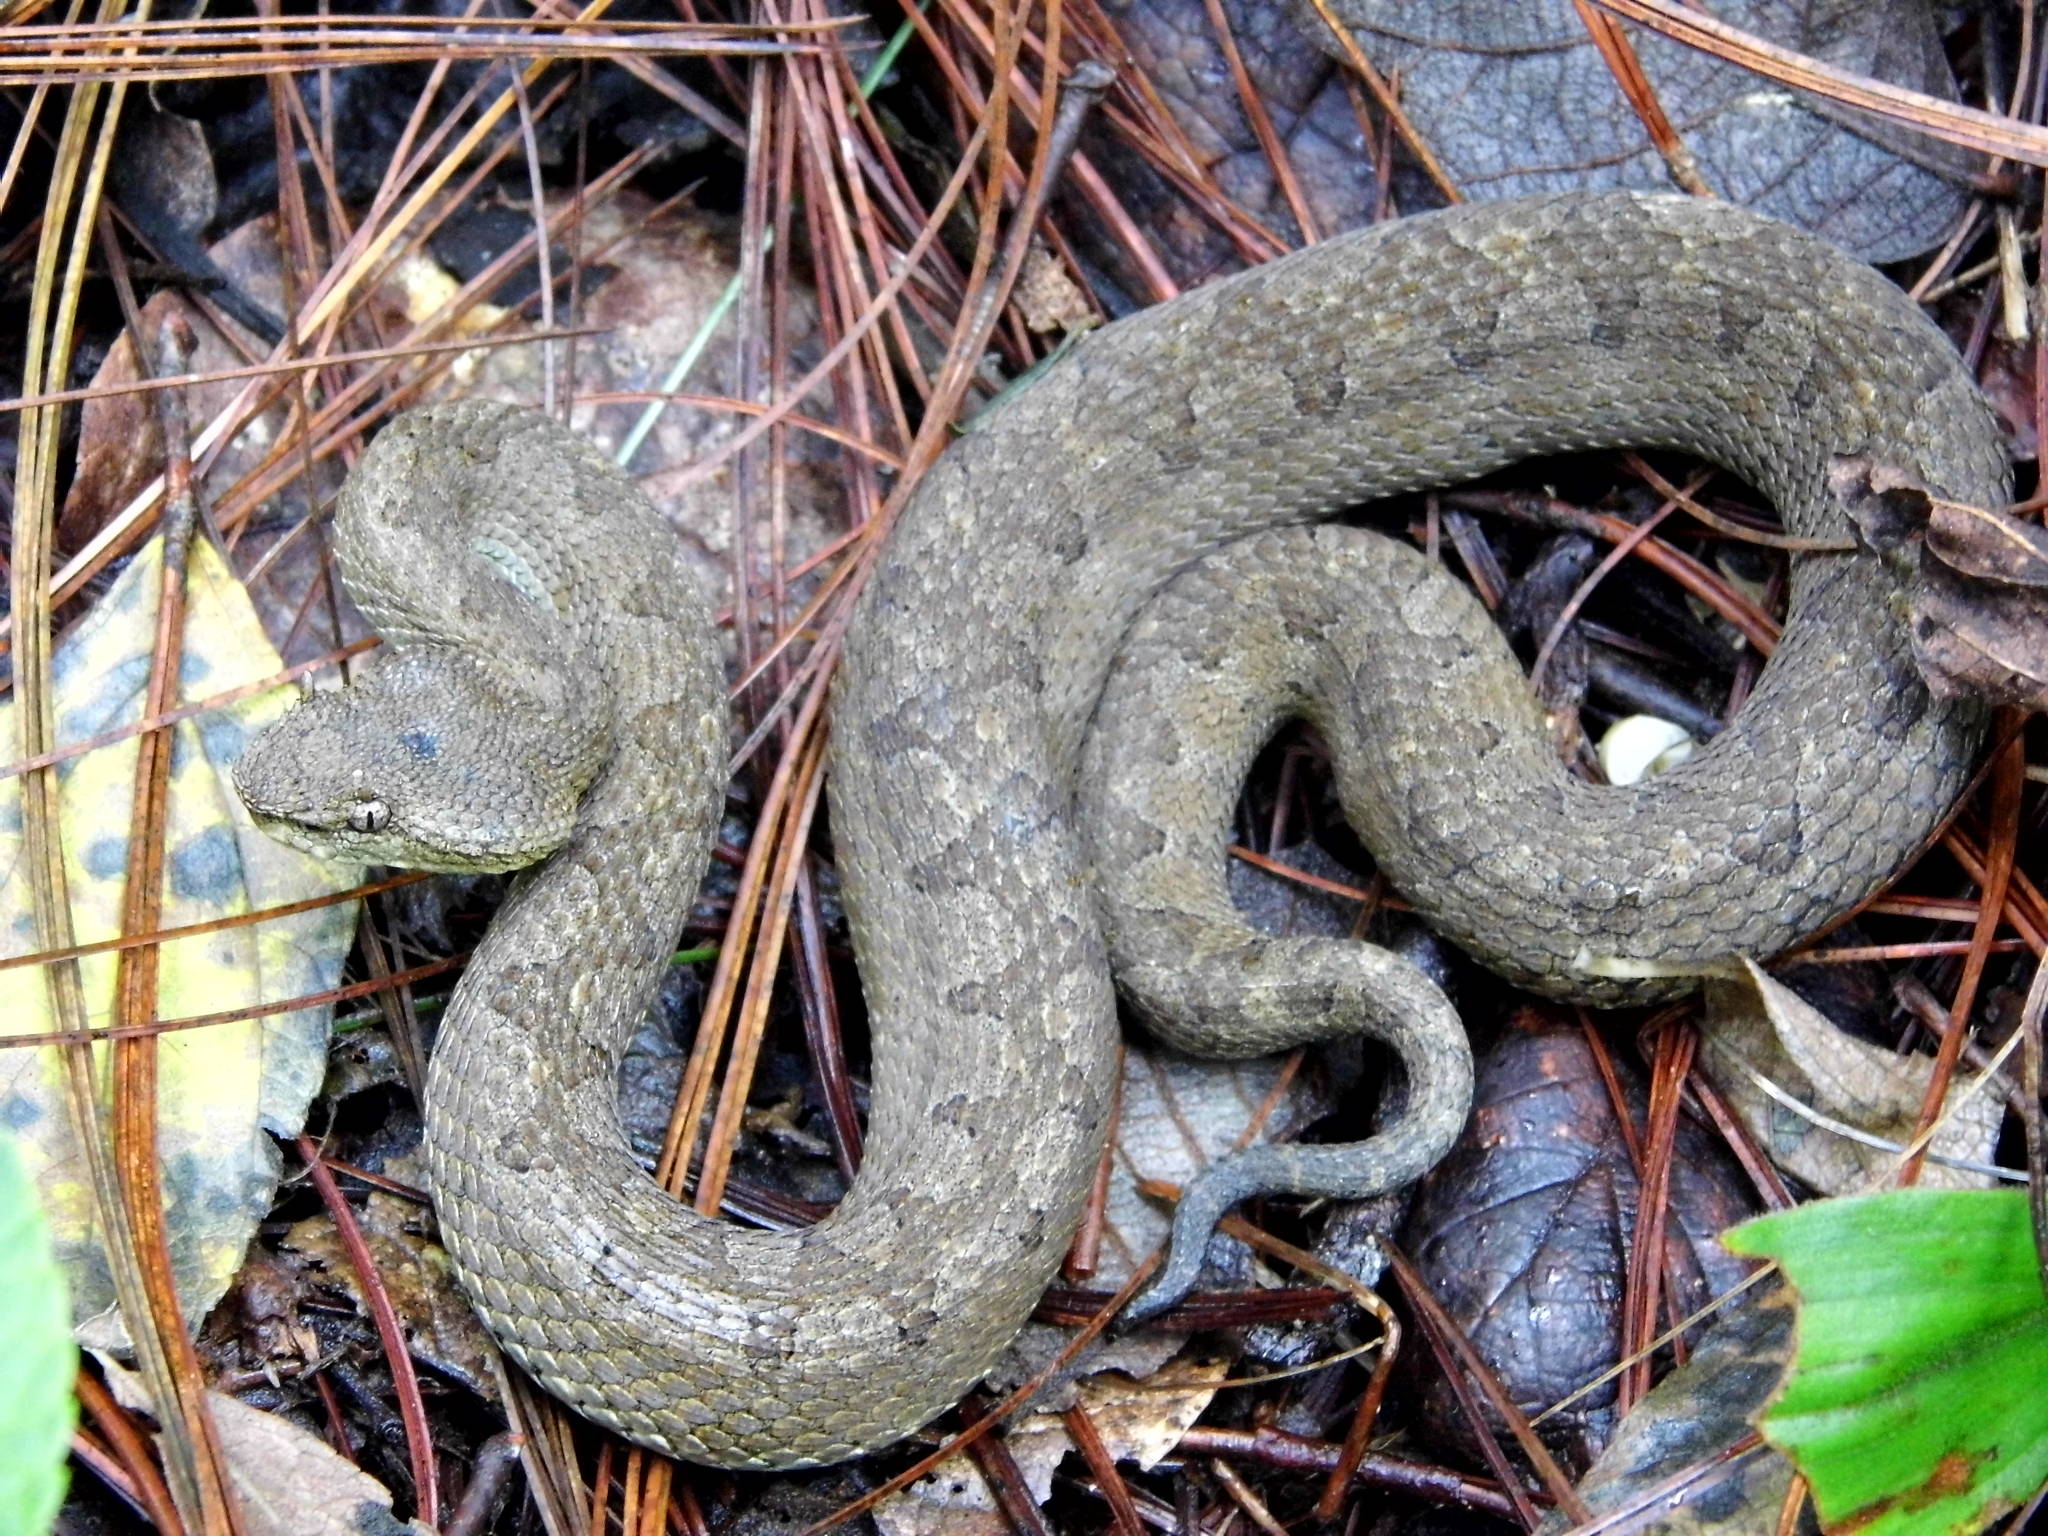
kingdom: Animalia
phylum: Chordata
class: Squamata
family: Viperidae
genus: Ophryacus
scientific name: Ophryacus undulatus
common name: Mexican horned pit viper
